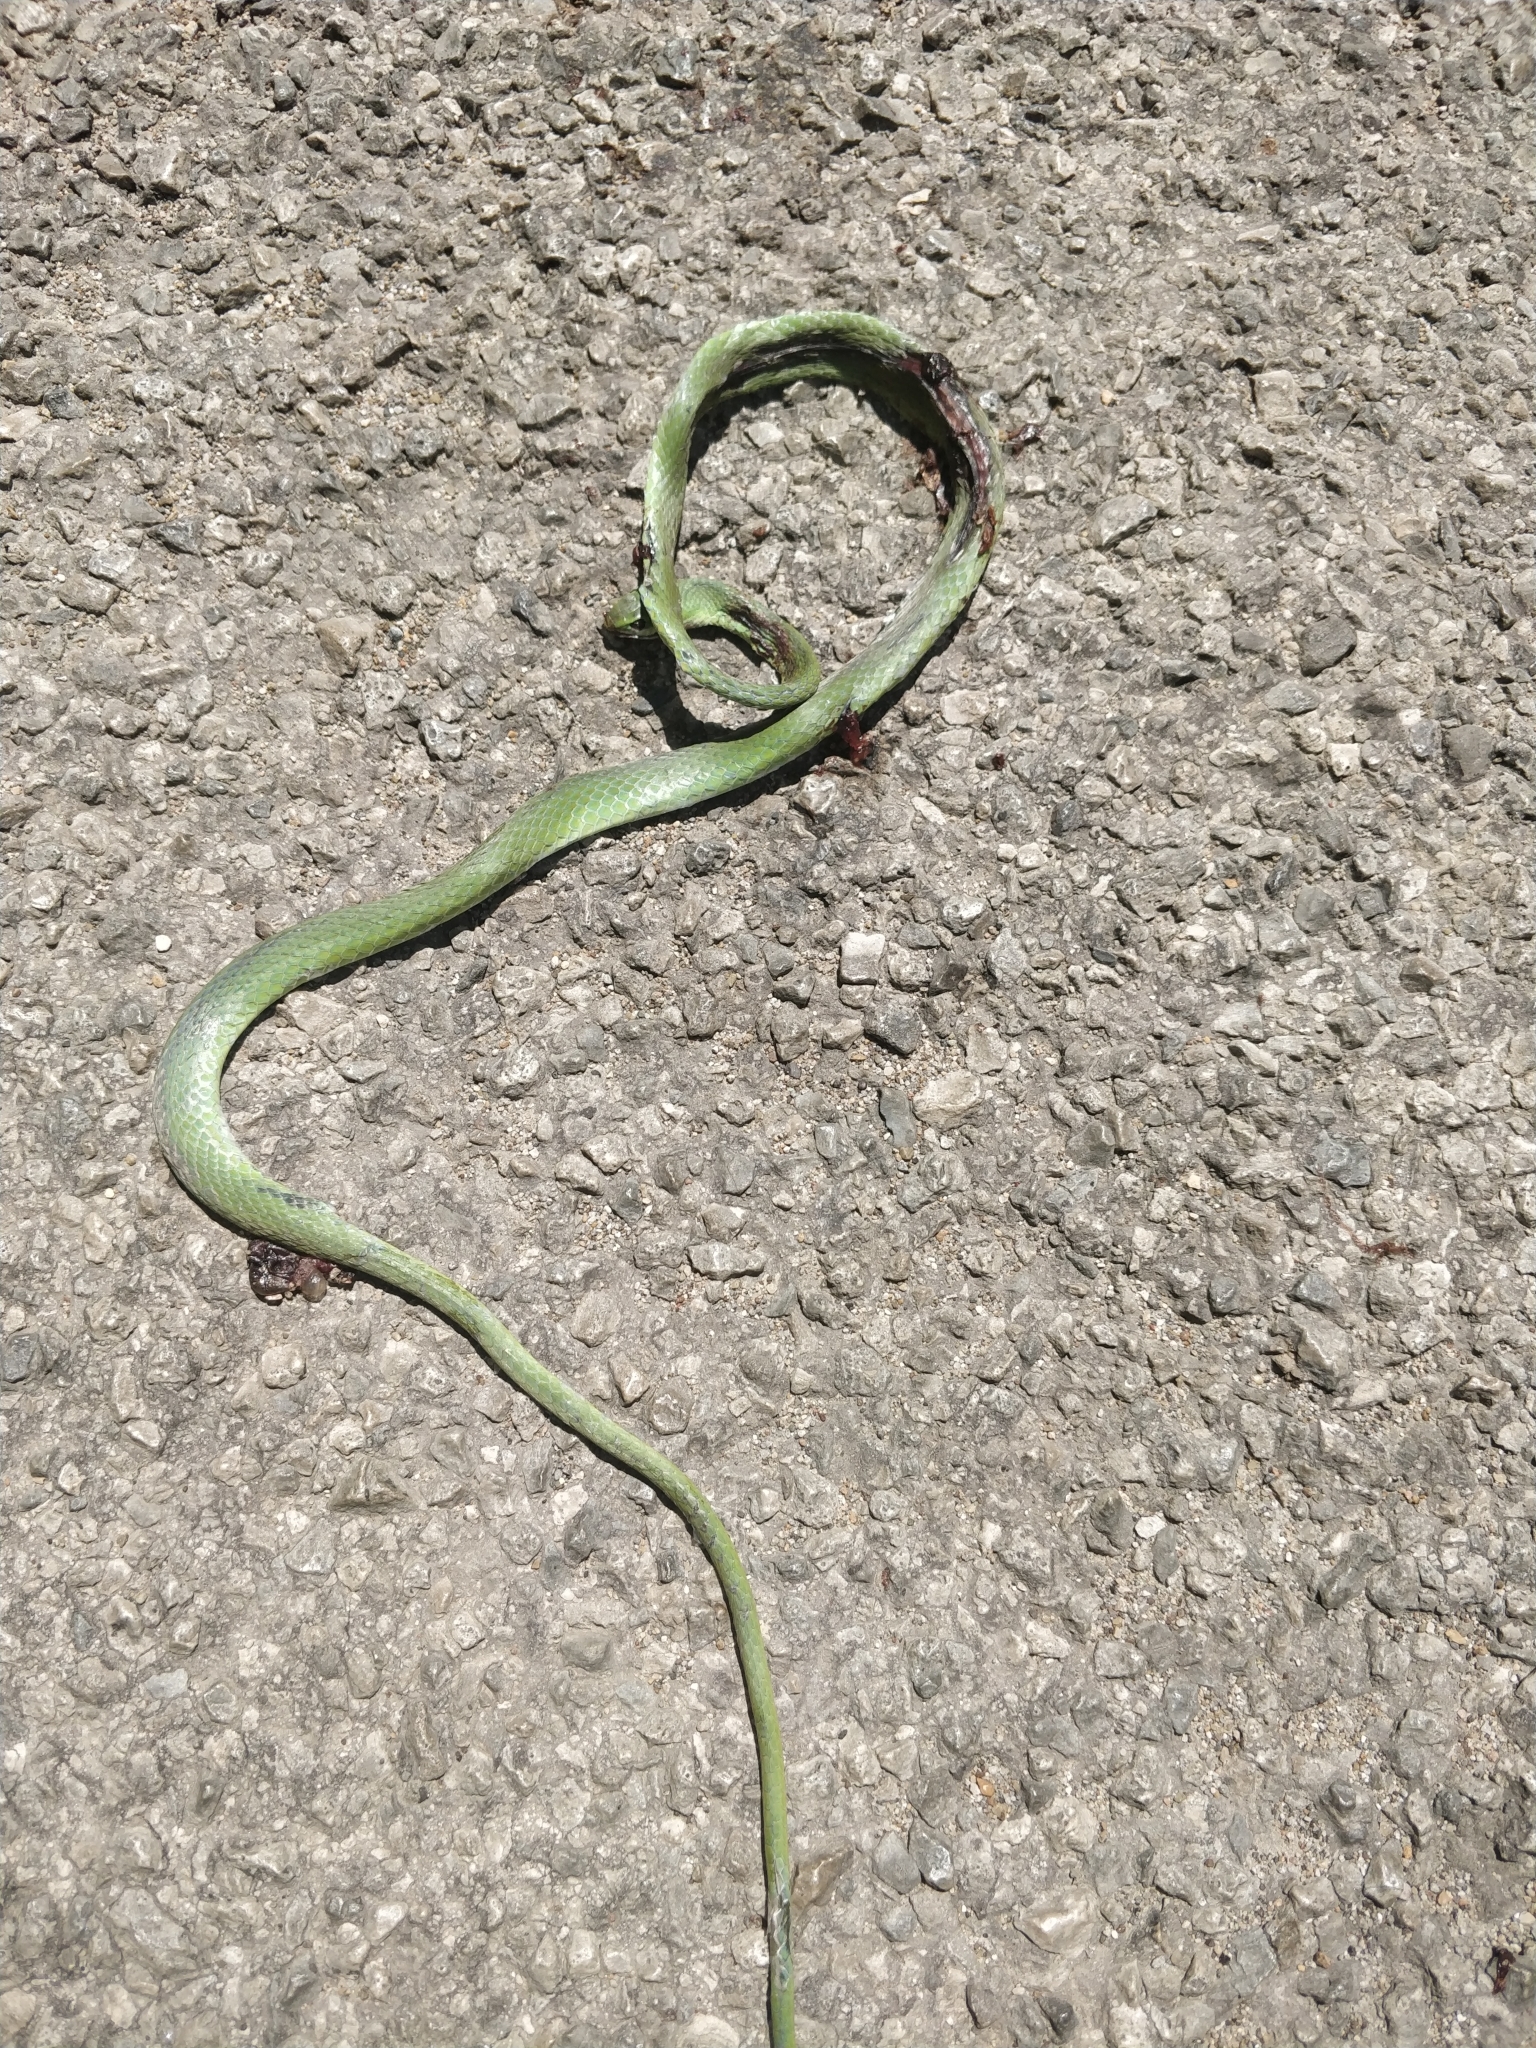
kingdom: Animalia
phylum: Chordata
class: Squamata
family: Colubridae
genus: Opheodrys
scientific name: Opheodrys aestivus
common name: Rough greensnake
